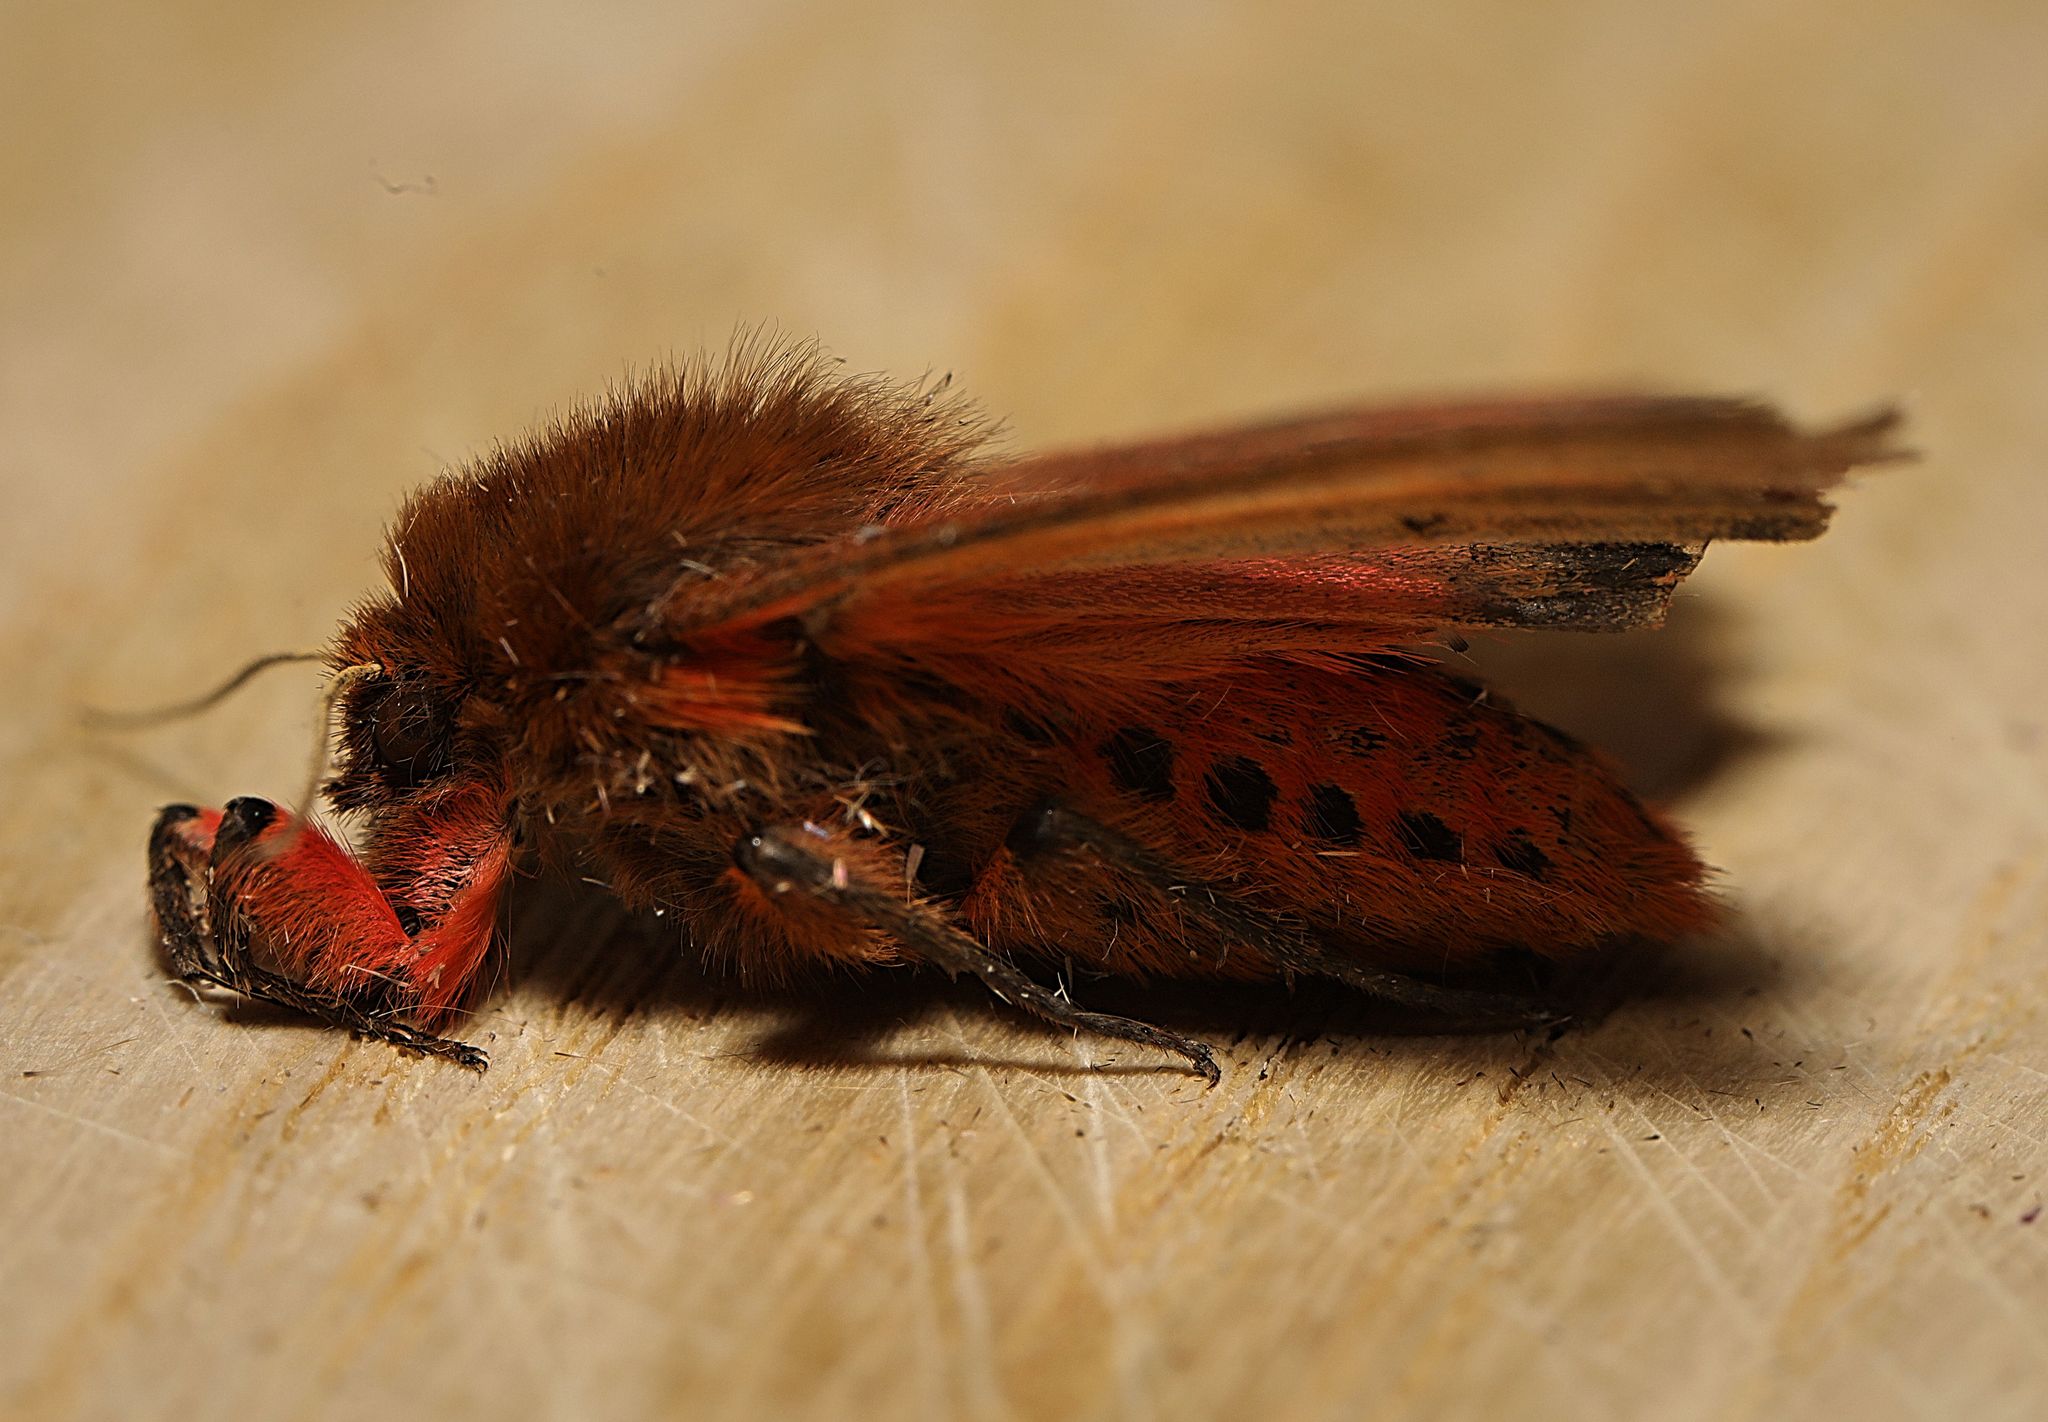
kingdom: Animalia
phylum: Arthropoda
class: Insecta
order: Lepidoptera
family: Erebidae
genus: Phragmatobia
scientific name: Phragmatobia fuliginosa
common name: Ruby tiger
